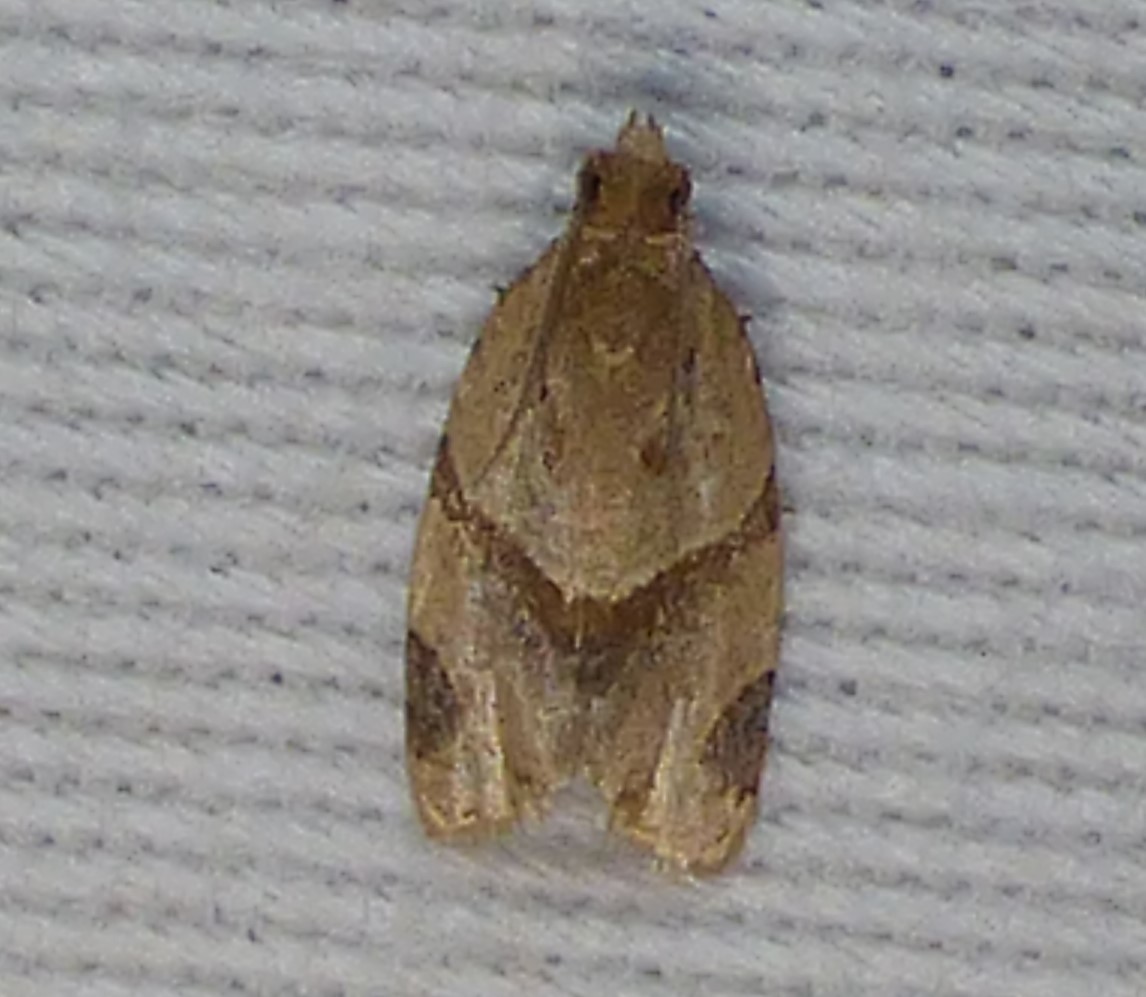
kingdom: Animalia
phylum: Arthropoda
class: Insecta
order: Lepidoptera
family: Tortricidae
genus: Clepsis
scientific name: Clepsis peritana
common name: Garden tortrix
